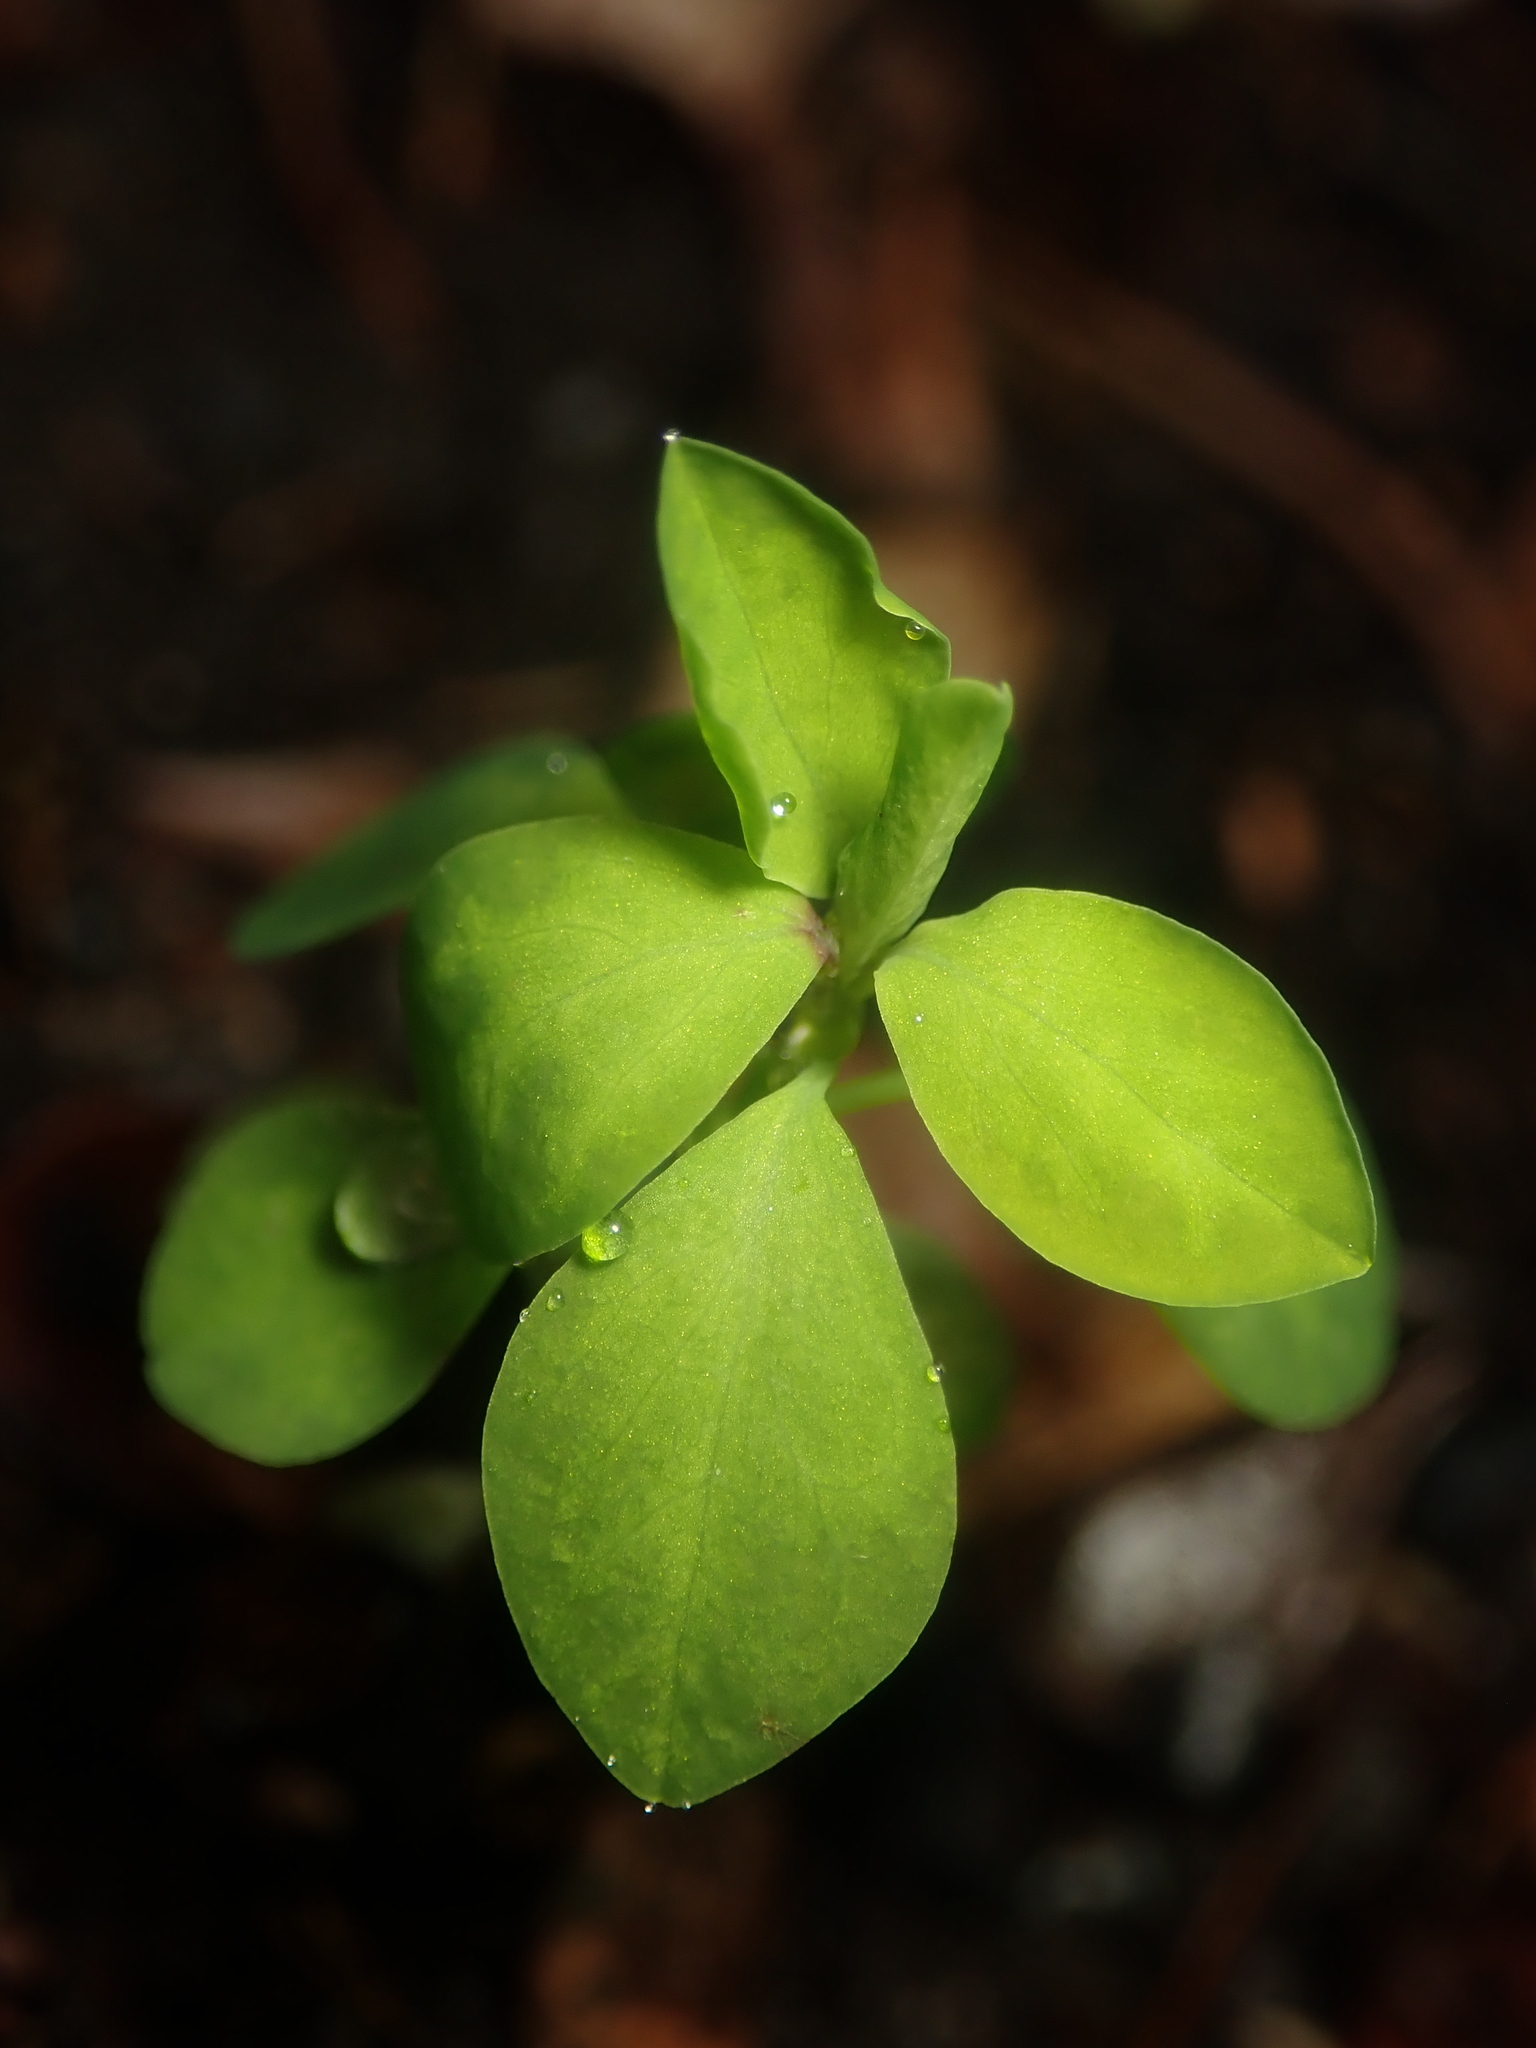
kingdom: Plantae
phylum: Tracheophyta
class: Magnoliopsida
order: Malpighiales
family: Euphorbiaceae
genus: Euphorbia
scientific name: Euphorbia peplus
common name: Petty spurge
